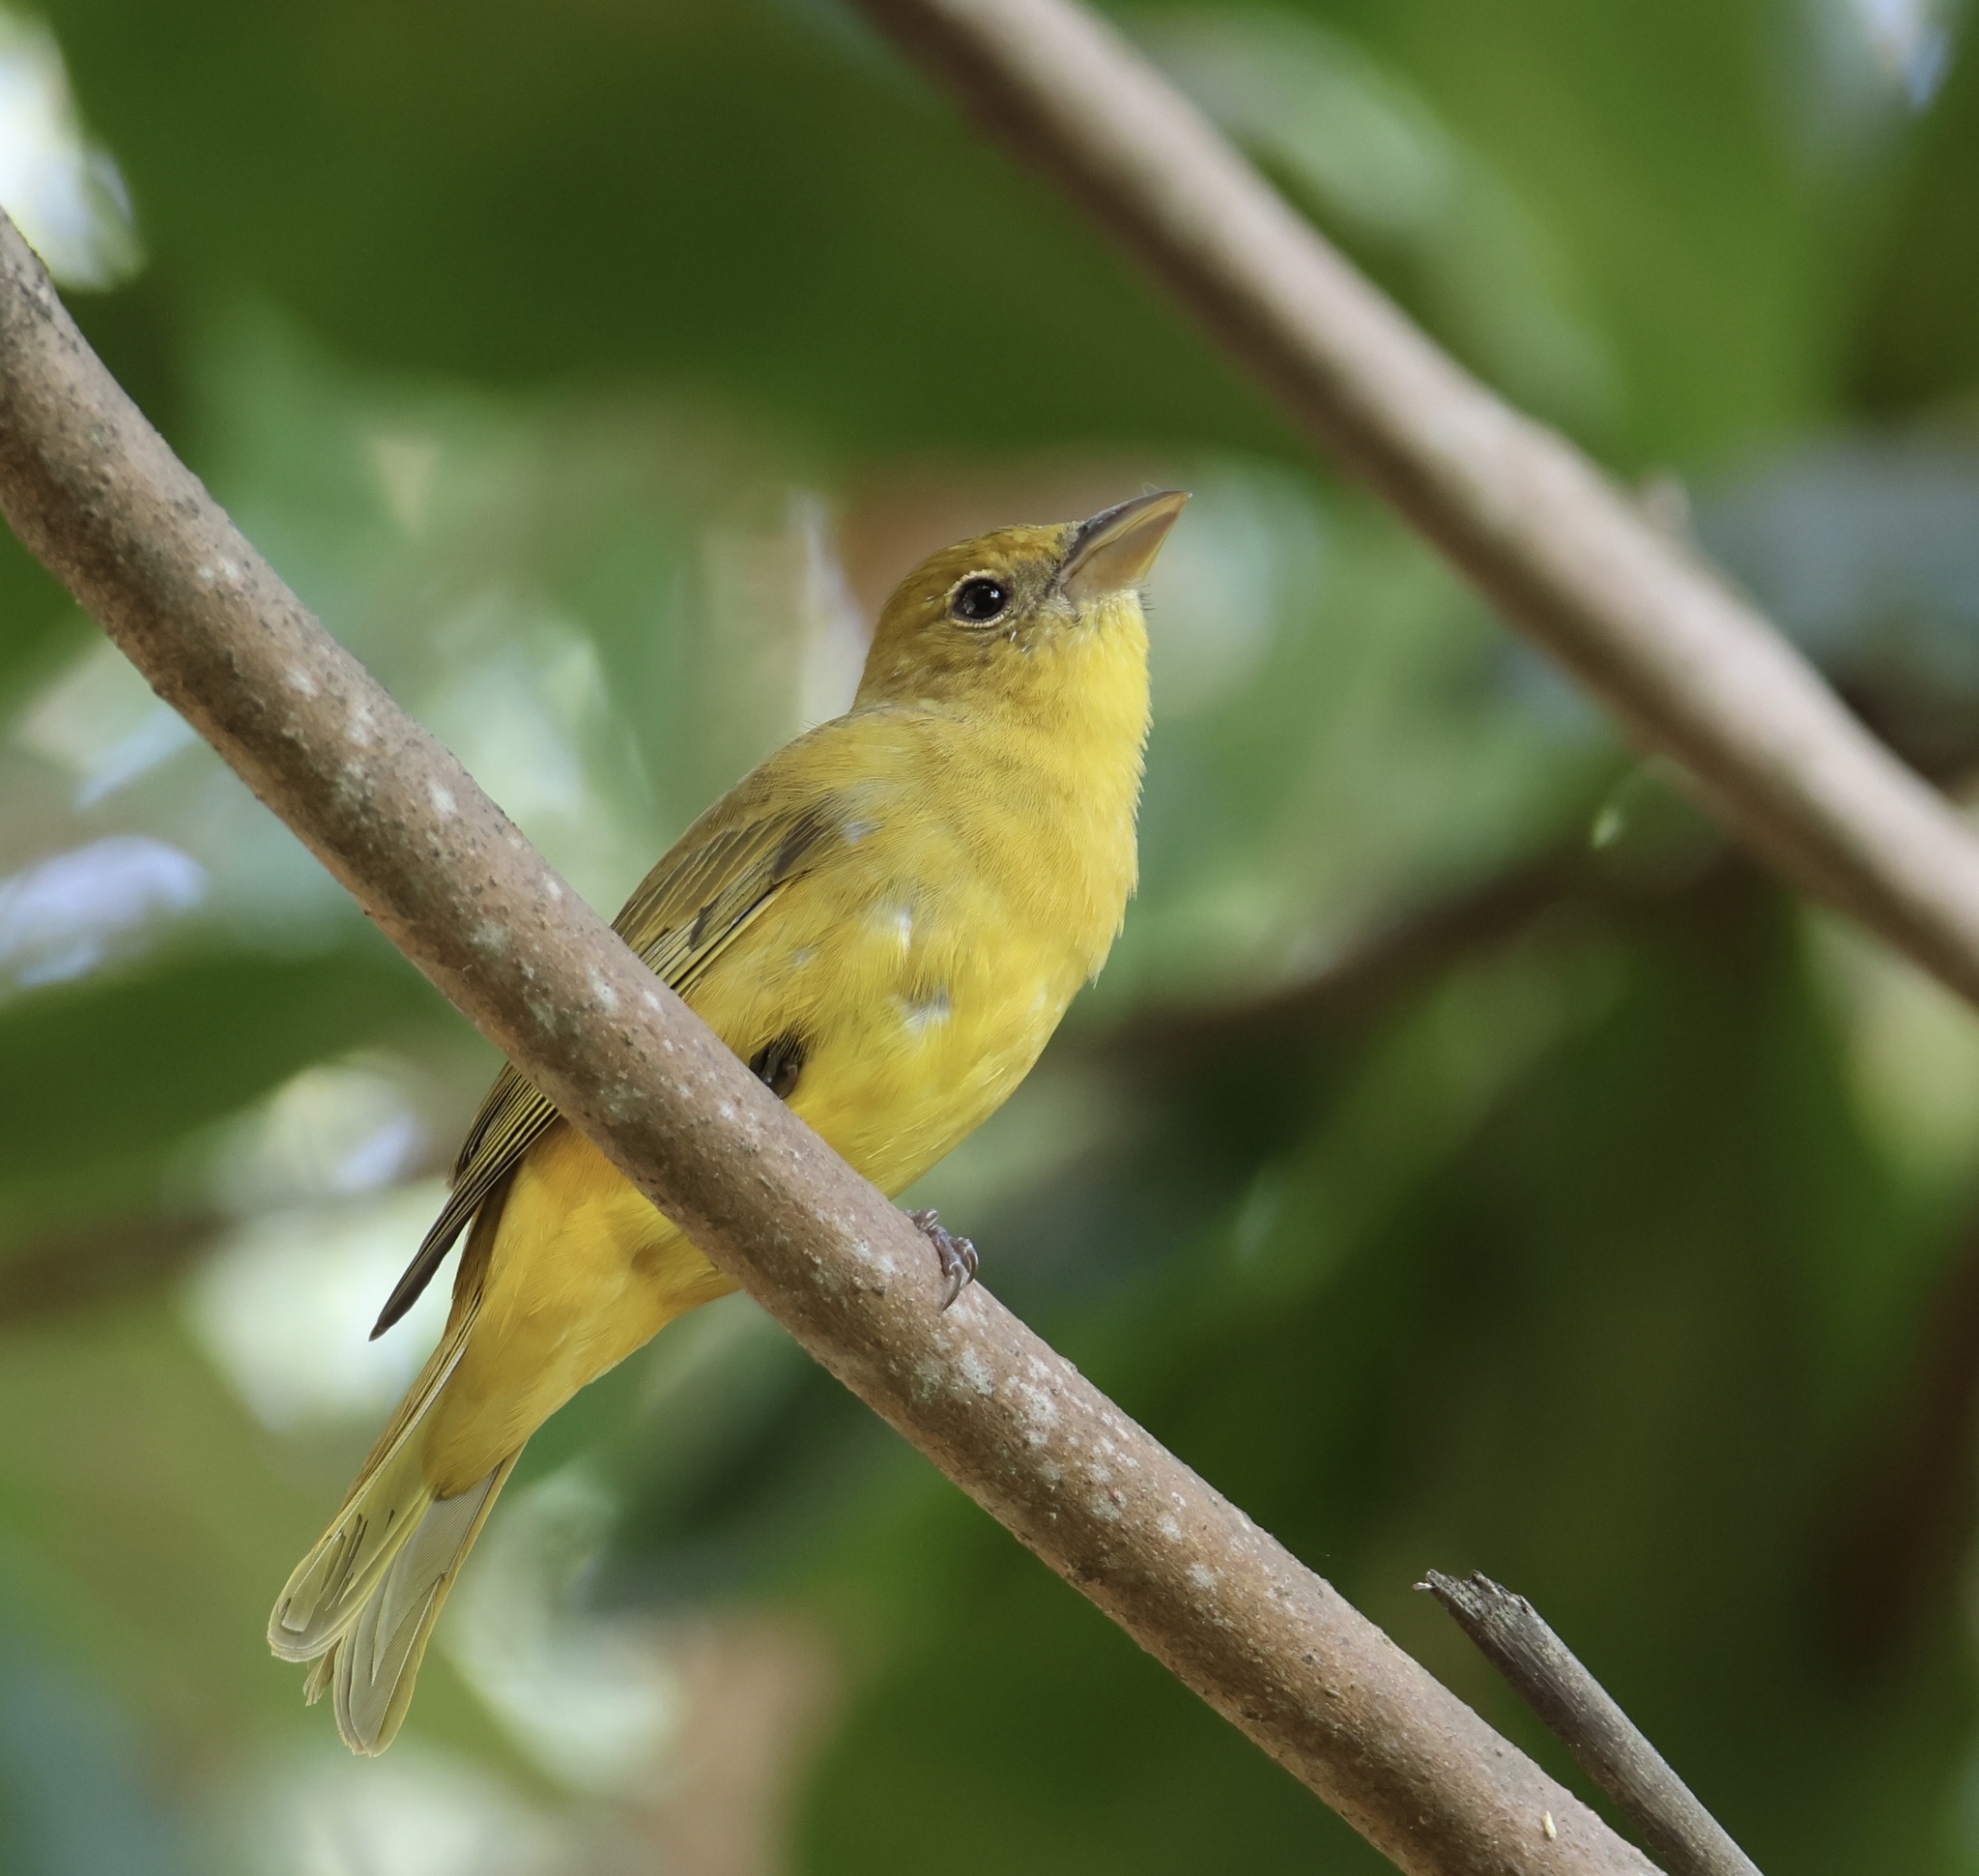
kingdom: Animalia
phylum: Chordata
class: Aves
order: Passeriformes
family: Cardinalidae
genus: Piranga
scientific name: Piranga rubra
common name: Summer tanager
